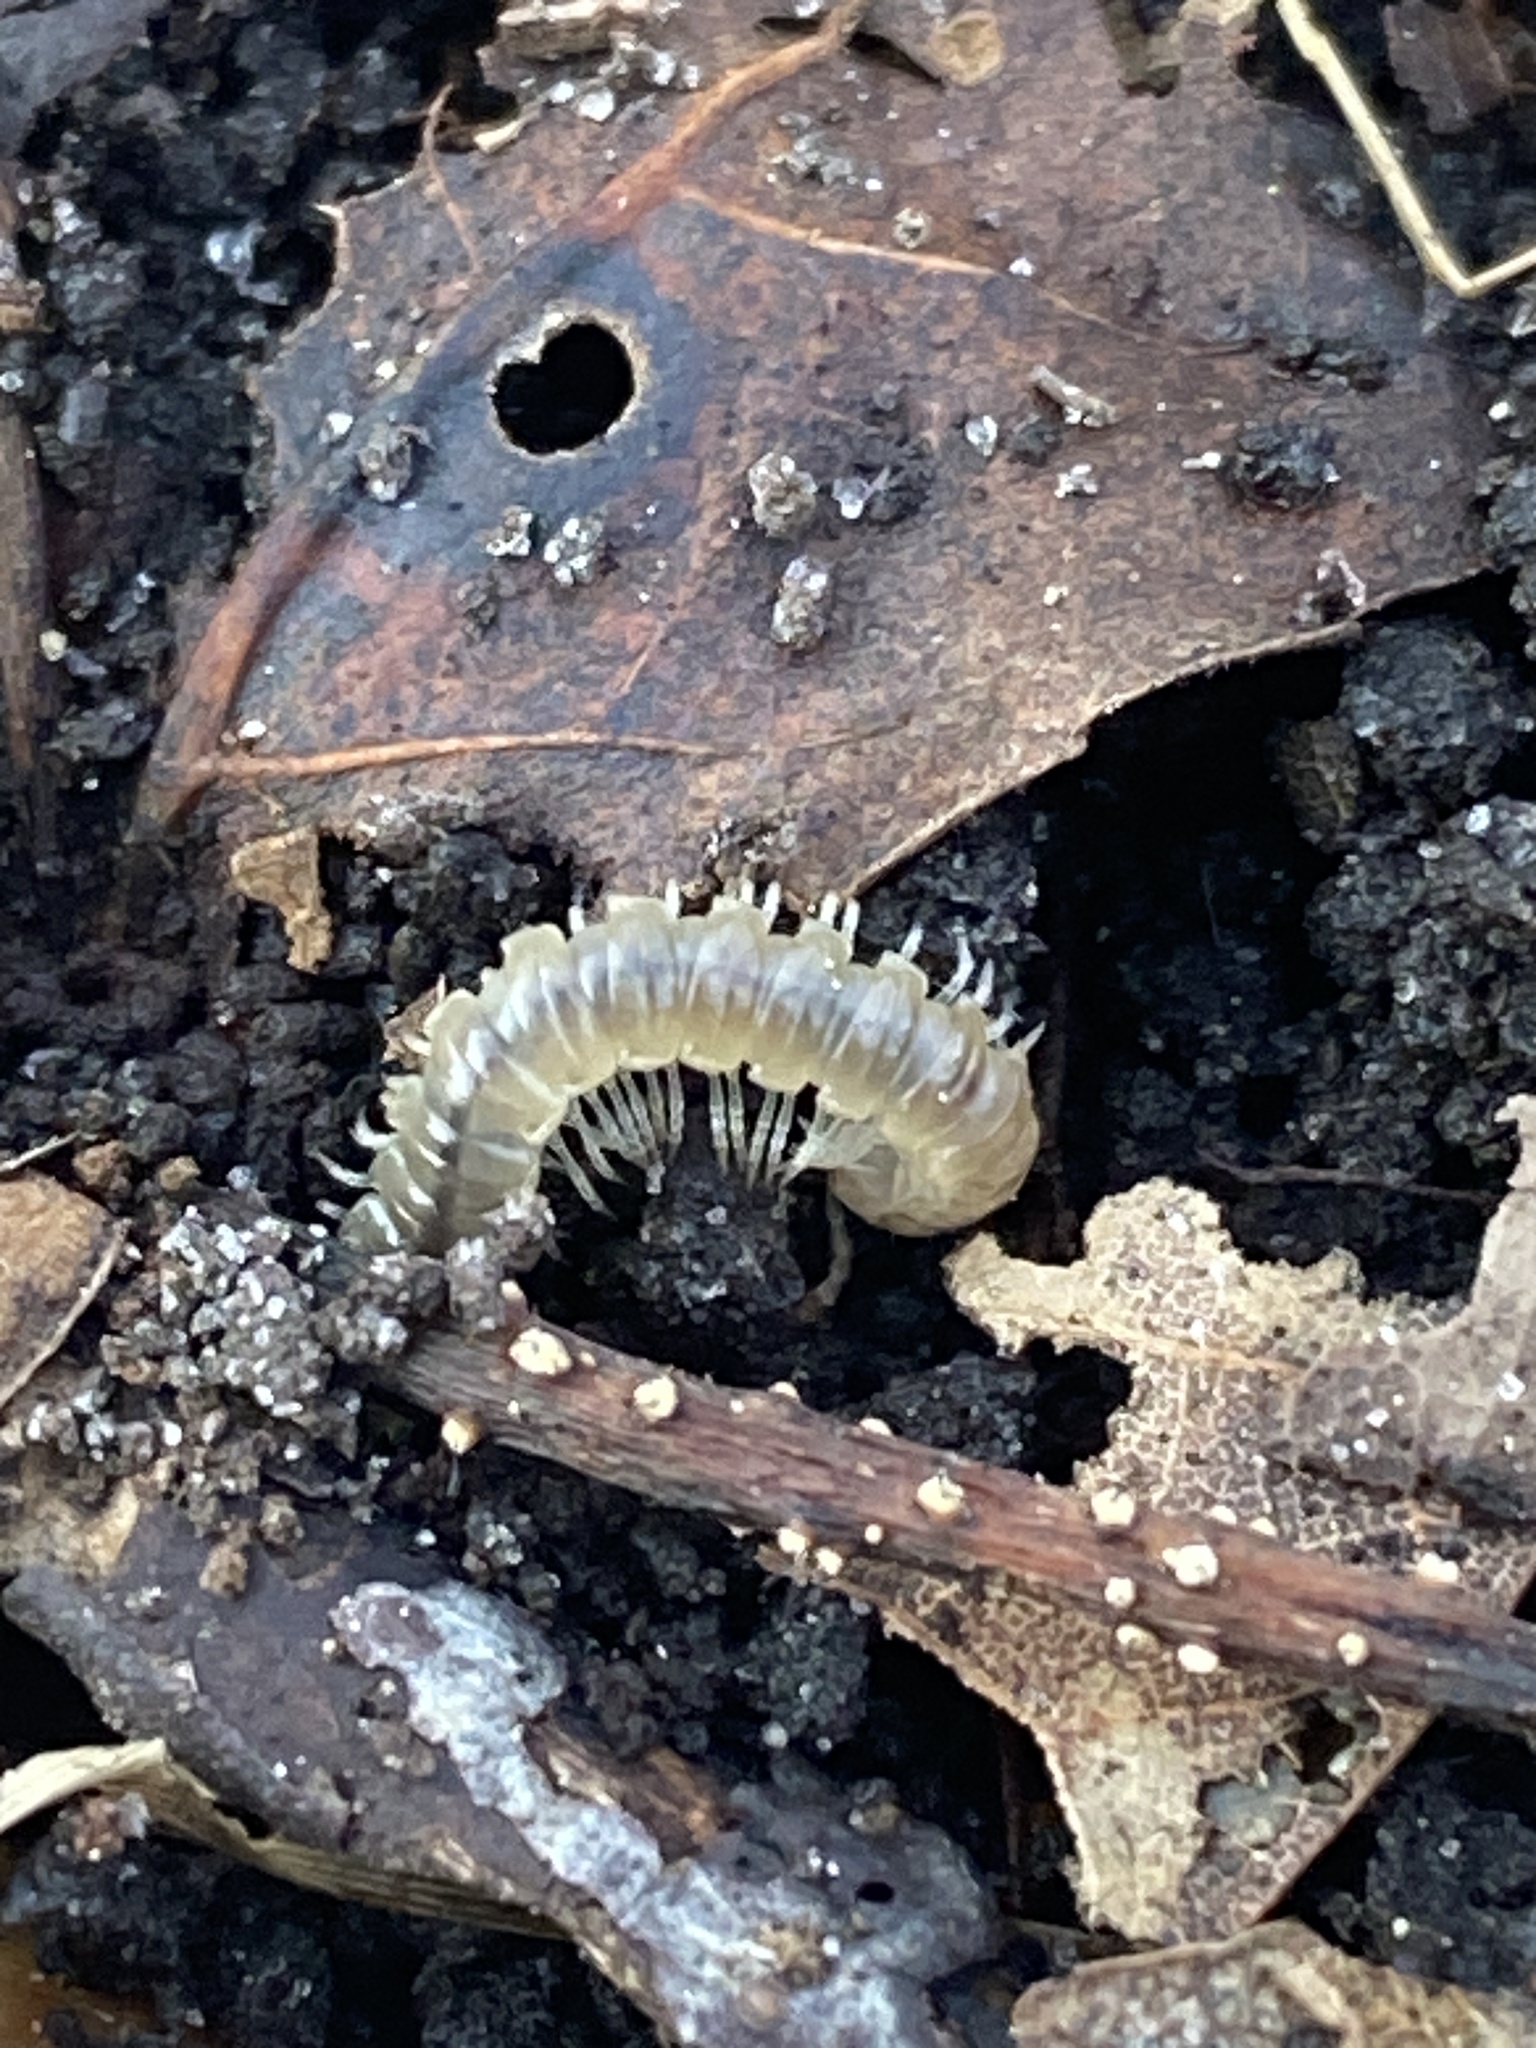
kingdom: Animalia
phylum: Arthropoda
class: Diplopoda
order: Polydesmida
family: Paradoxosomatidae
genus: Oxidus
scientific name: Oxidus gracilis
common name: Greenhouse millipede
